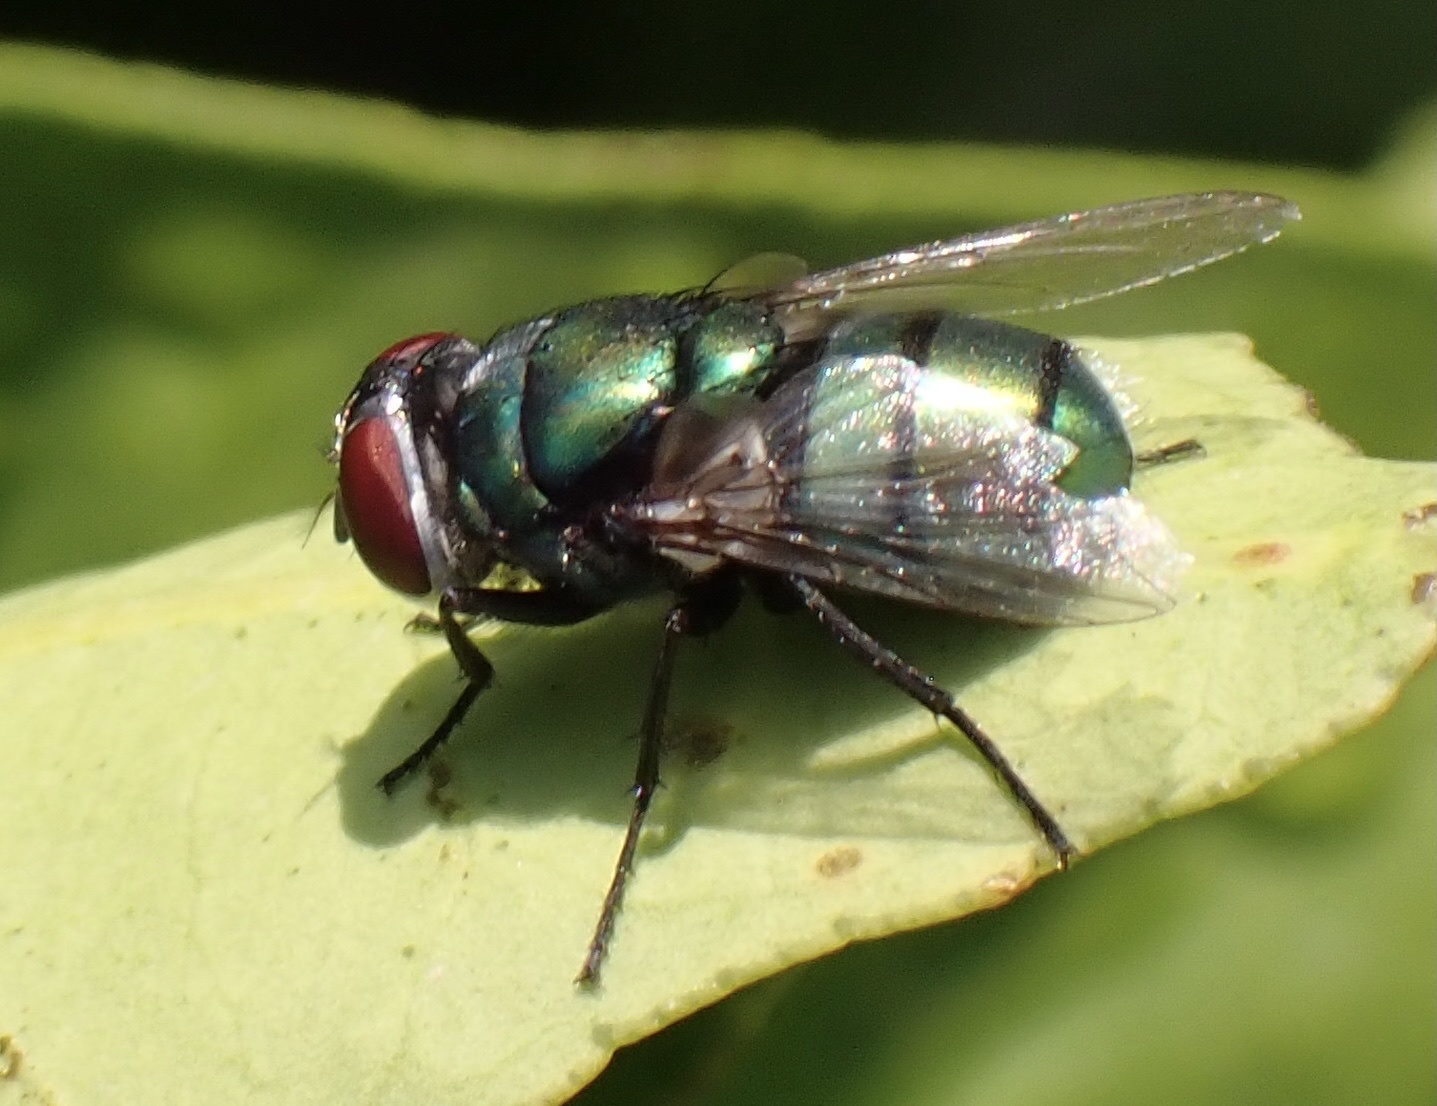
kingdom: Animalia
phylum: Arthropoda
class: Insecta
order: Diptera
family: Calliphoridae
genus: Chrysomya
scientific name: Chrysomya albiceps
